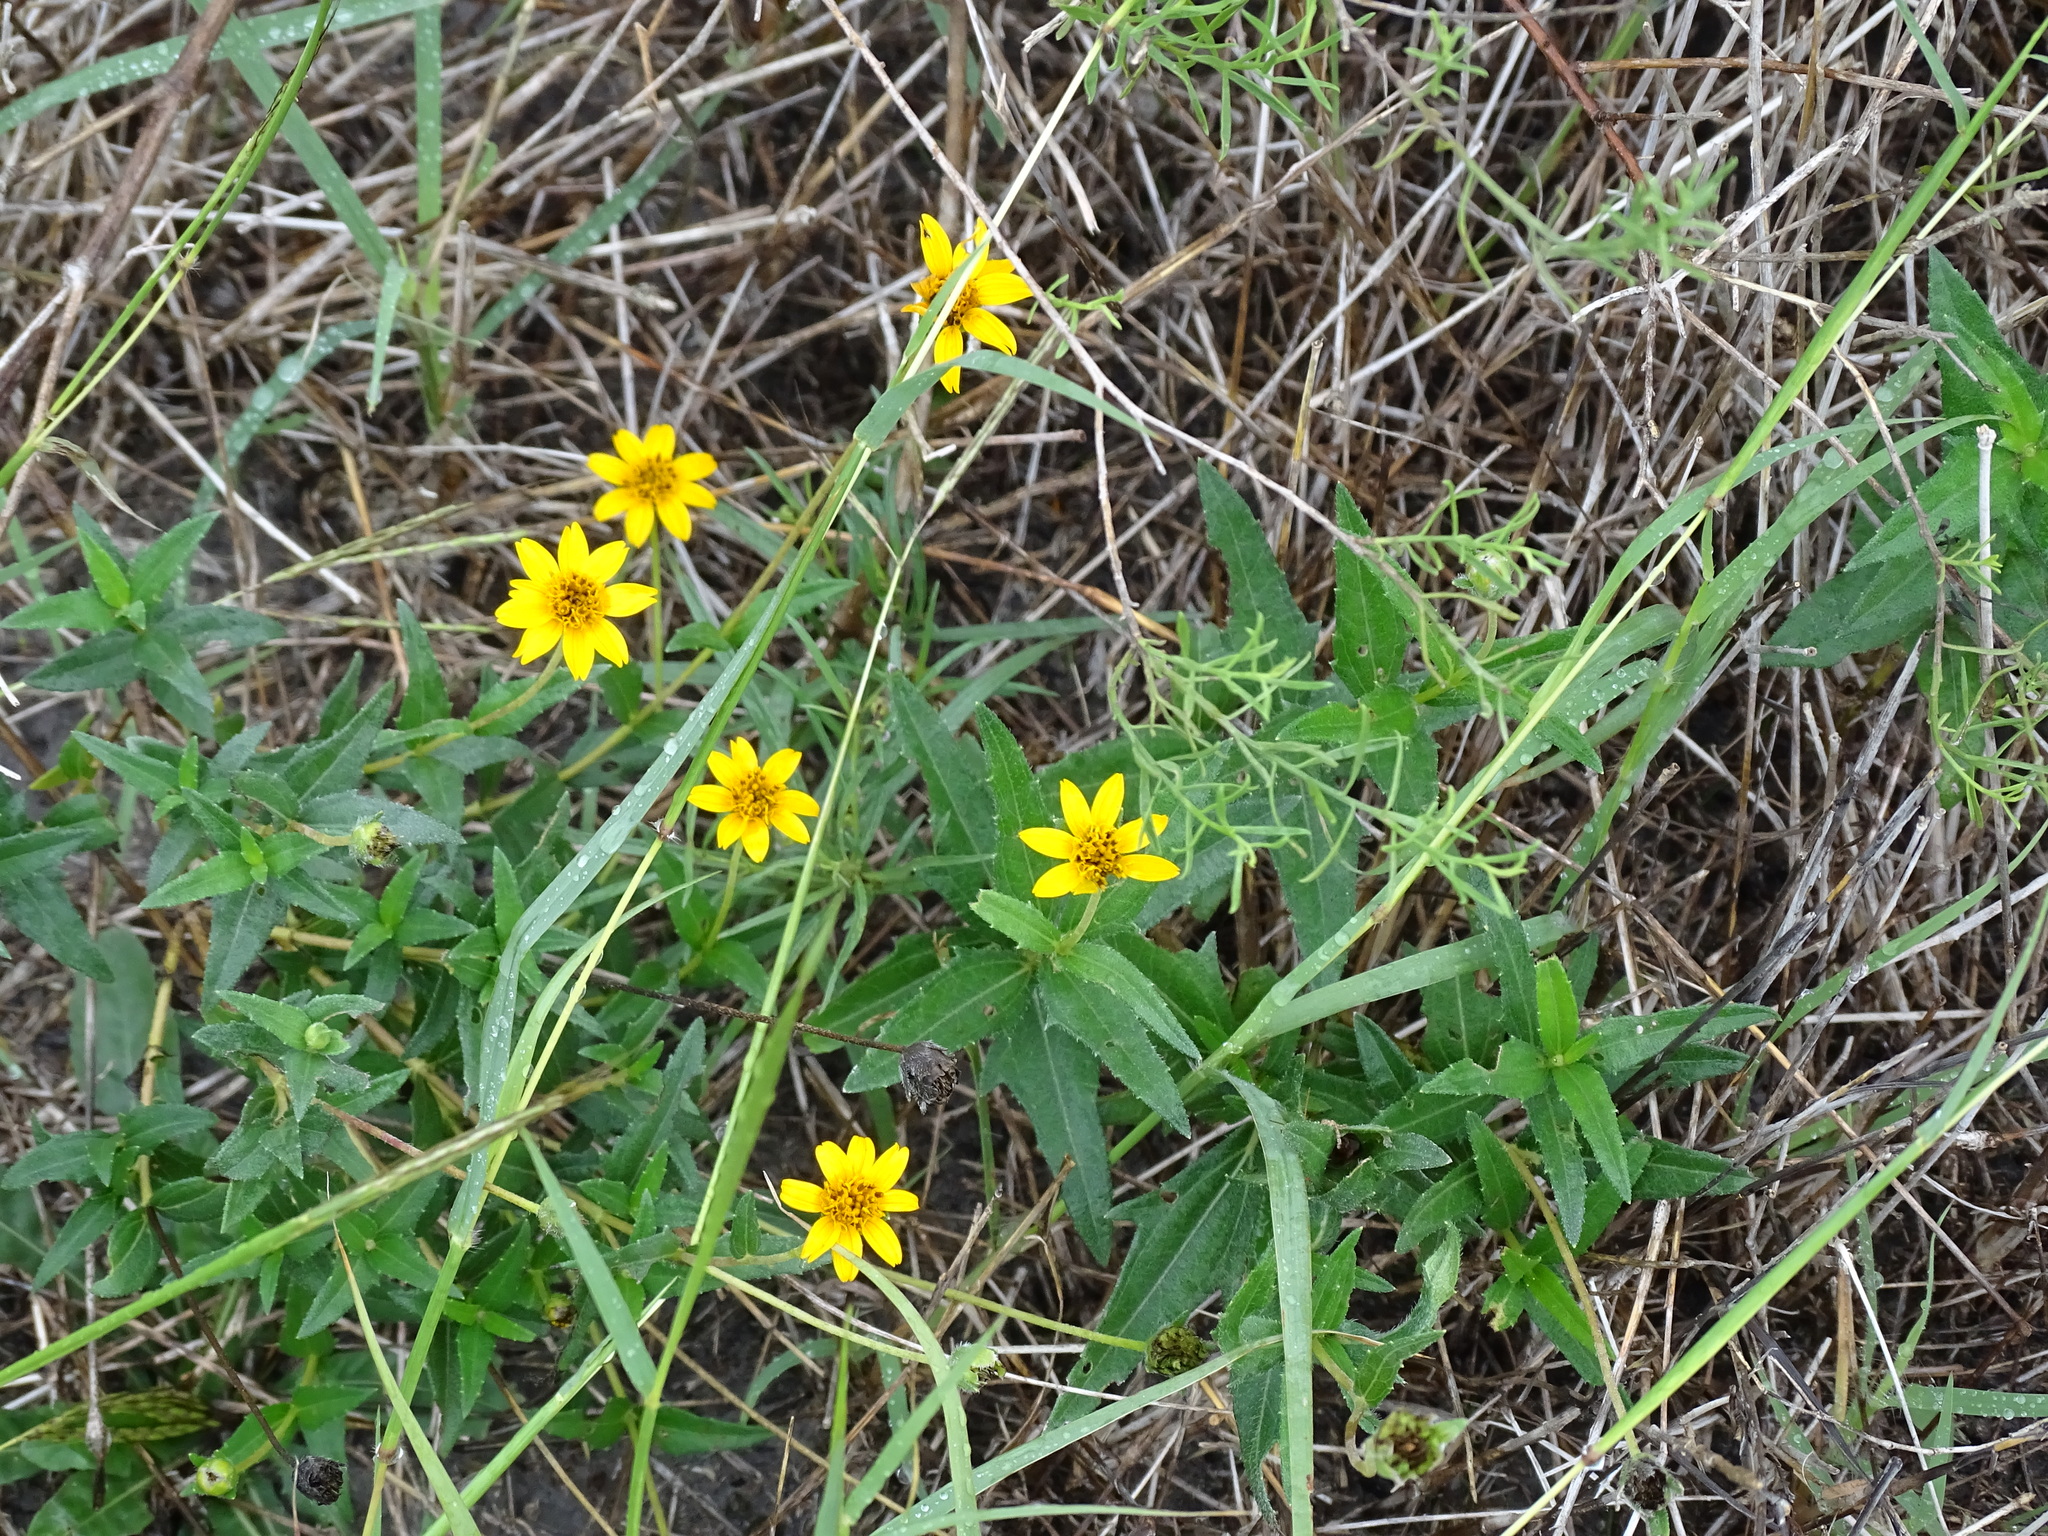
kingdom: Plantae
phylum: Tracheophyta
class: Magnoliopsida
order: Asterales
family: Asteraceae
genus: Wedelia
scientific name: Wedelia acapulcensis
